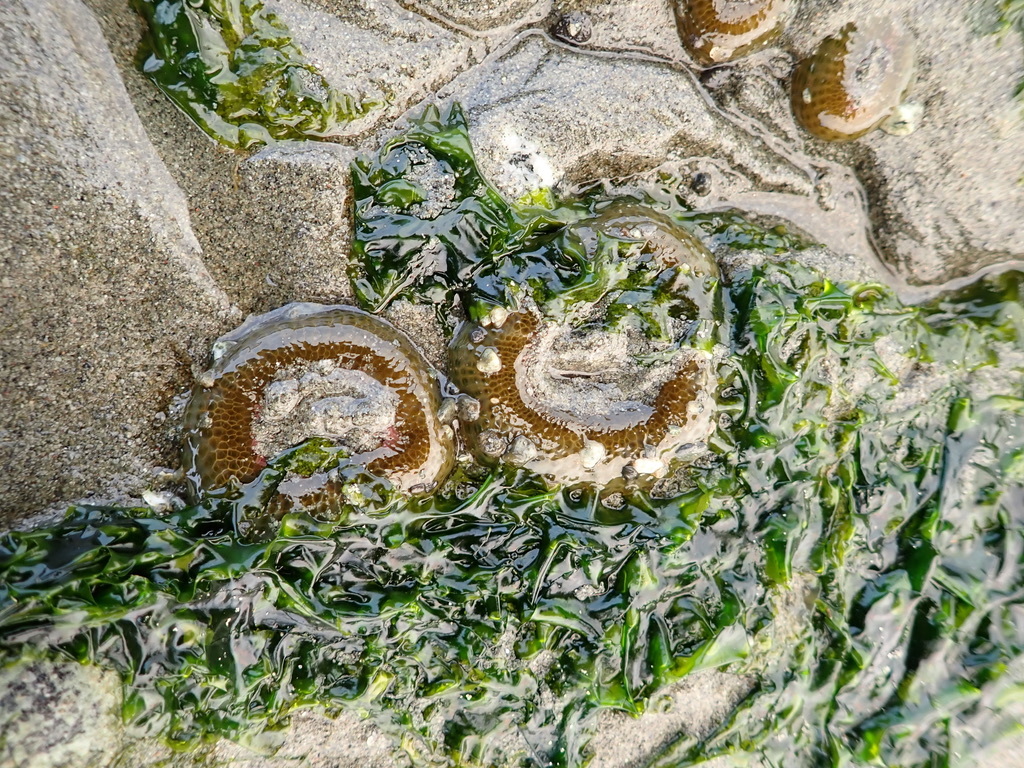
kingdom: Animalia
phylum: Cnidaria
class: Anthozoa
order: Actiniaria
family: Actiniidae
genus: Anthopleura
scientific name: Anthopleura elegantissima
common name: Clonal anemone
